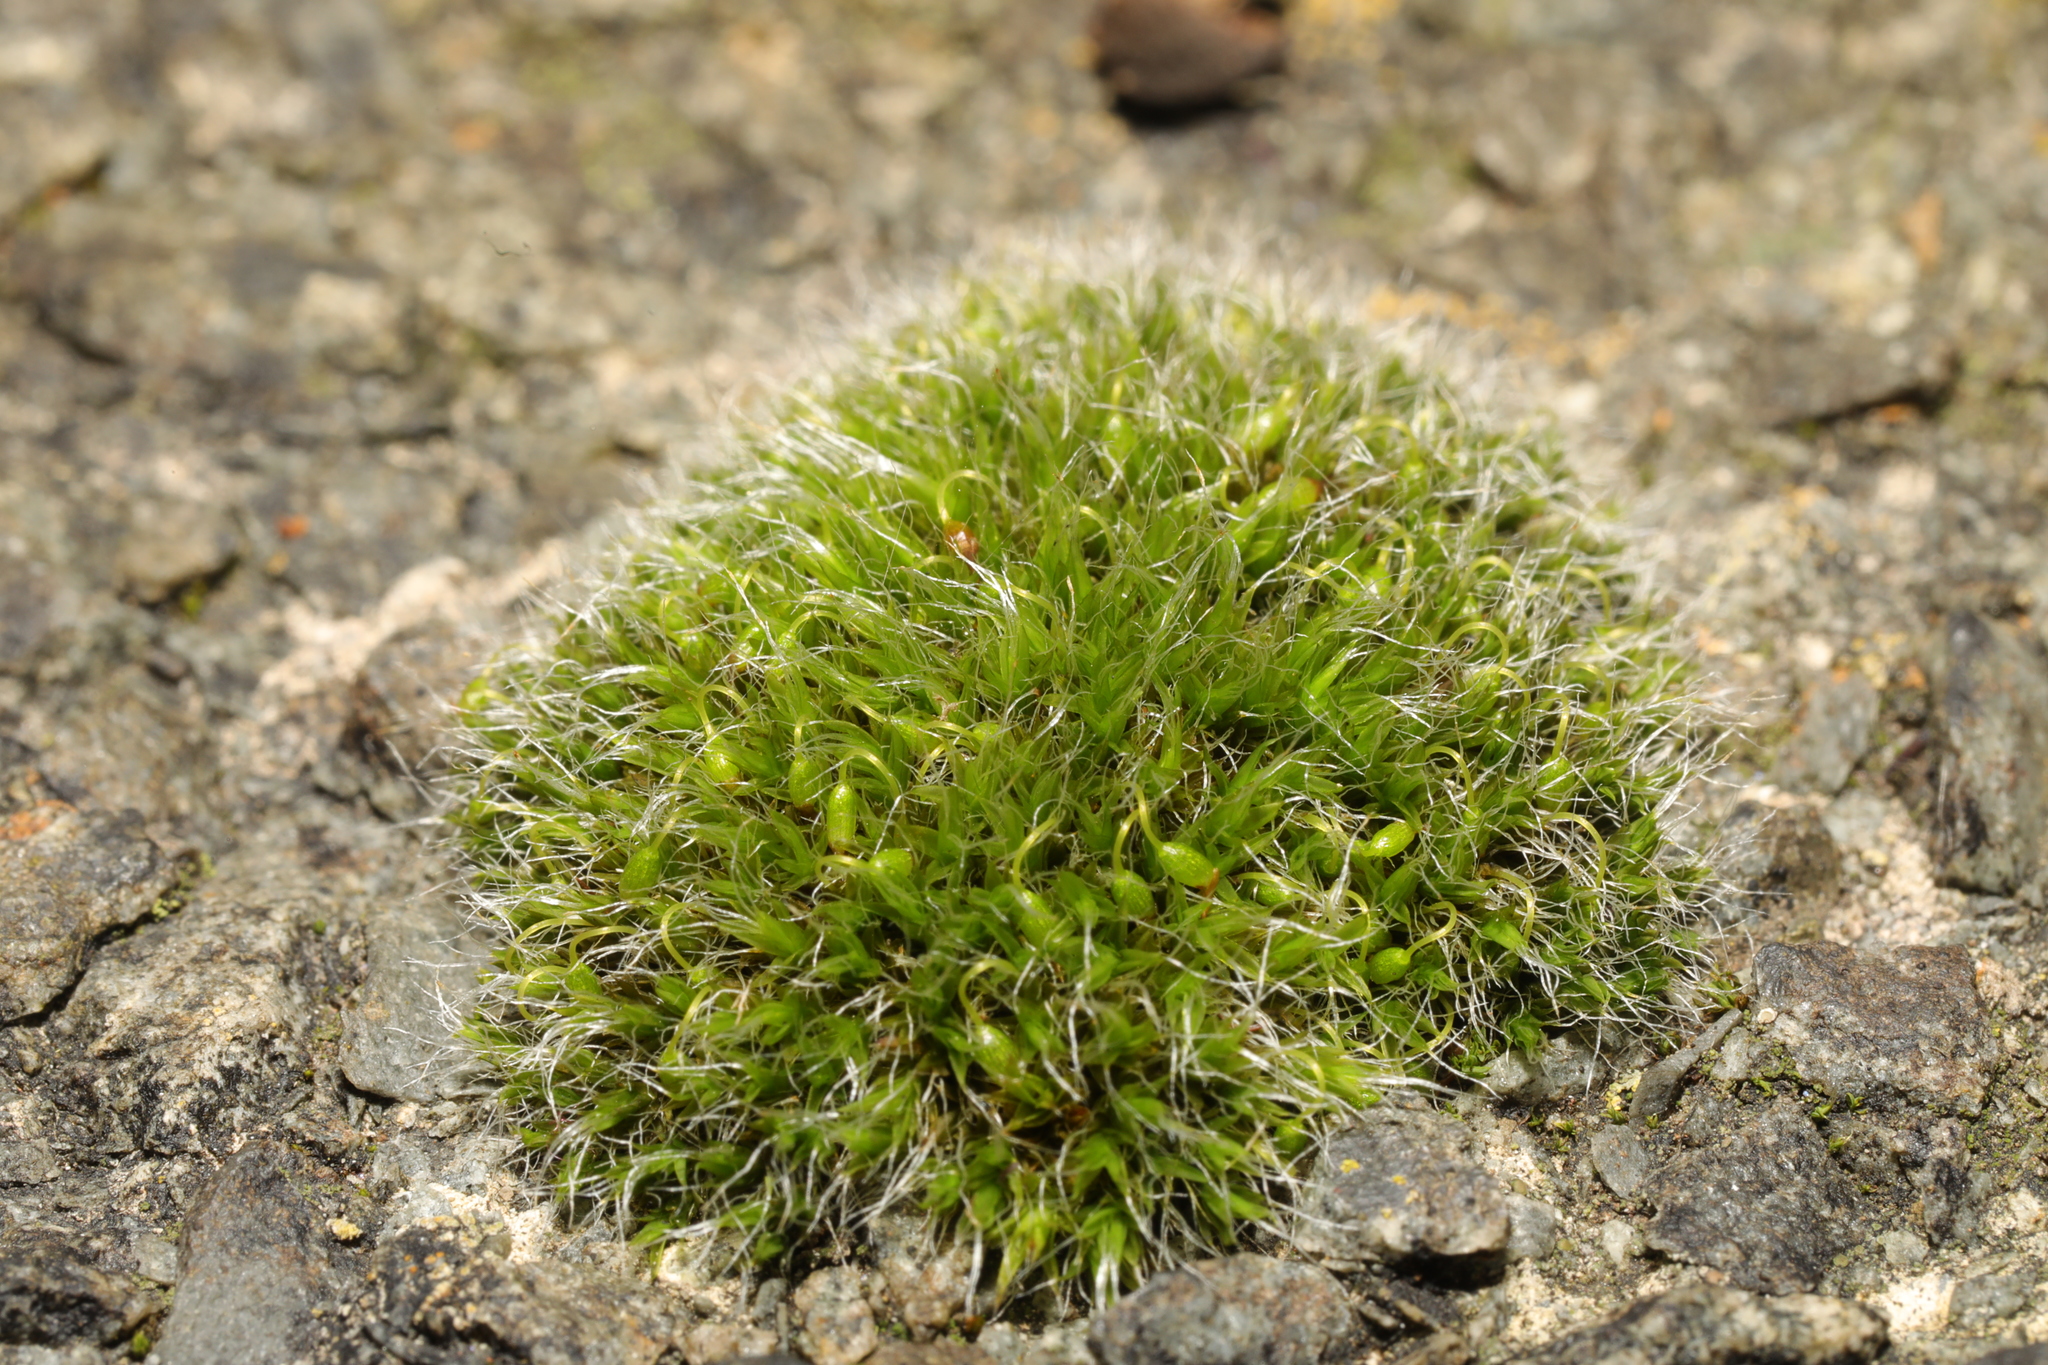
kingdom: Plantae
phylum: Bryophyta
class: Bryopsida
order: Grimmiales
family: Grimmiaceae
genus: Grimmia
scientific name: Grimmia pulvinata
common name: Grey-cushioned grimmia
